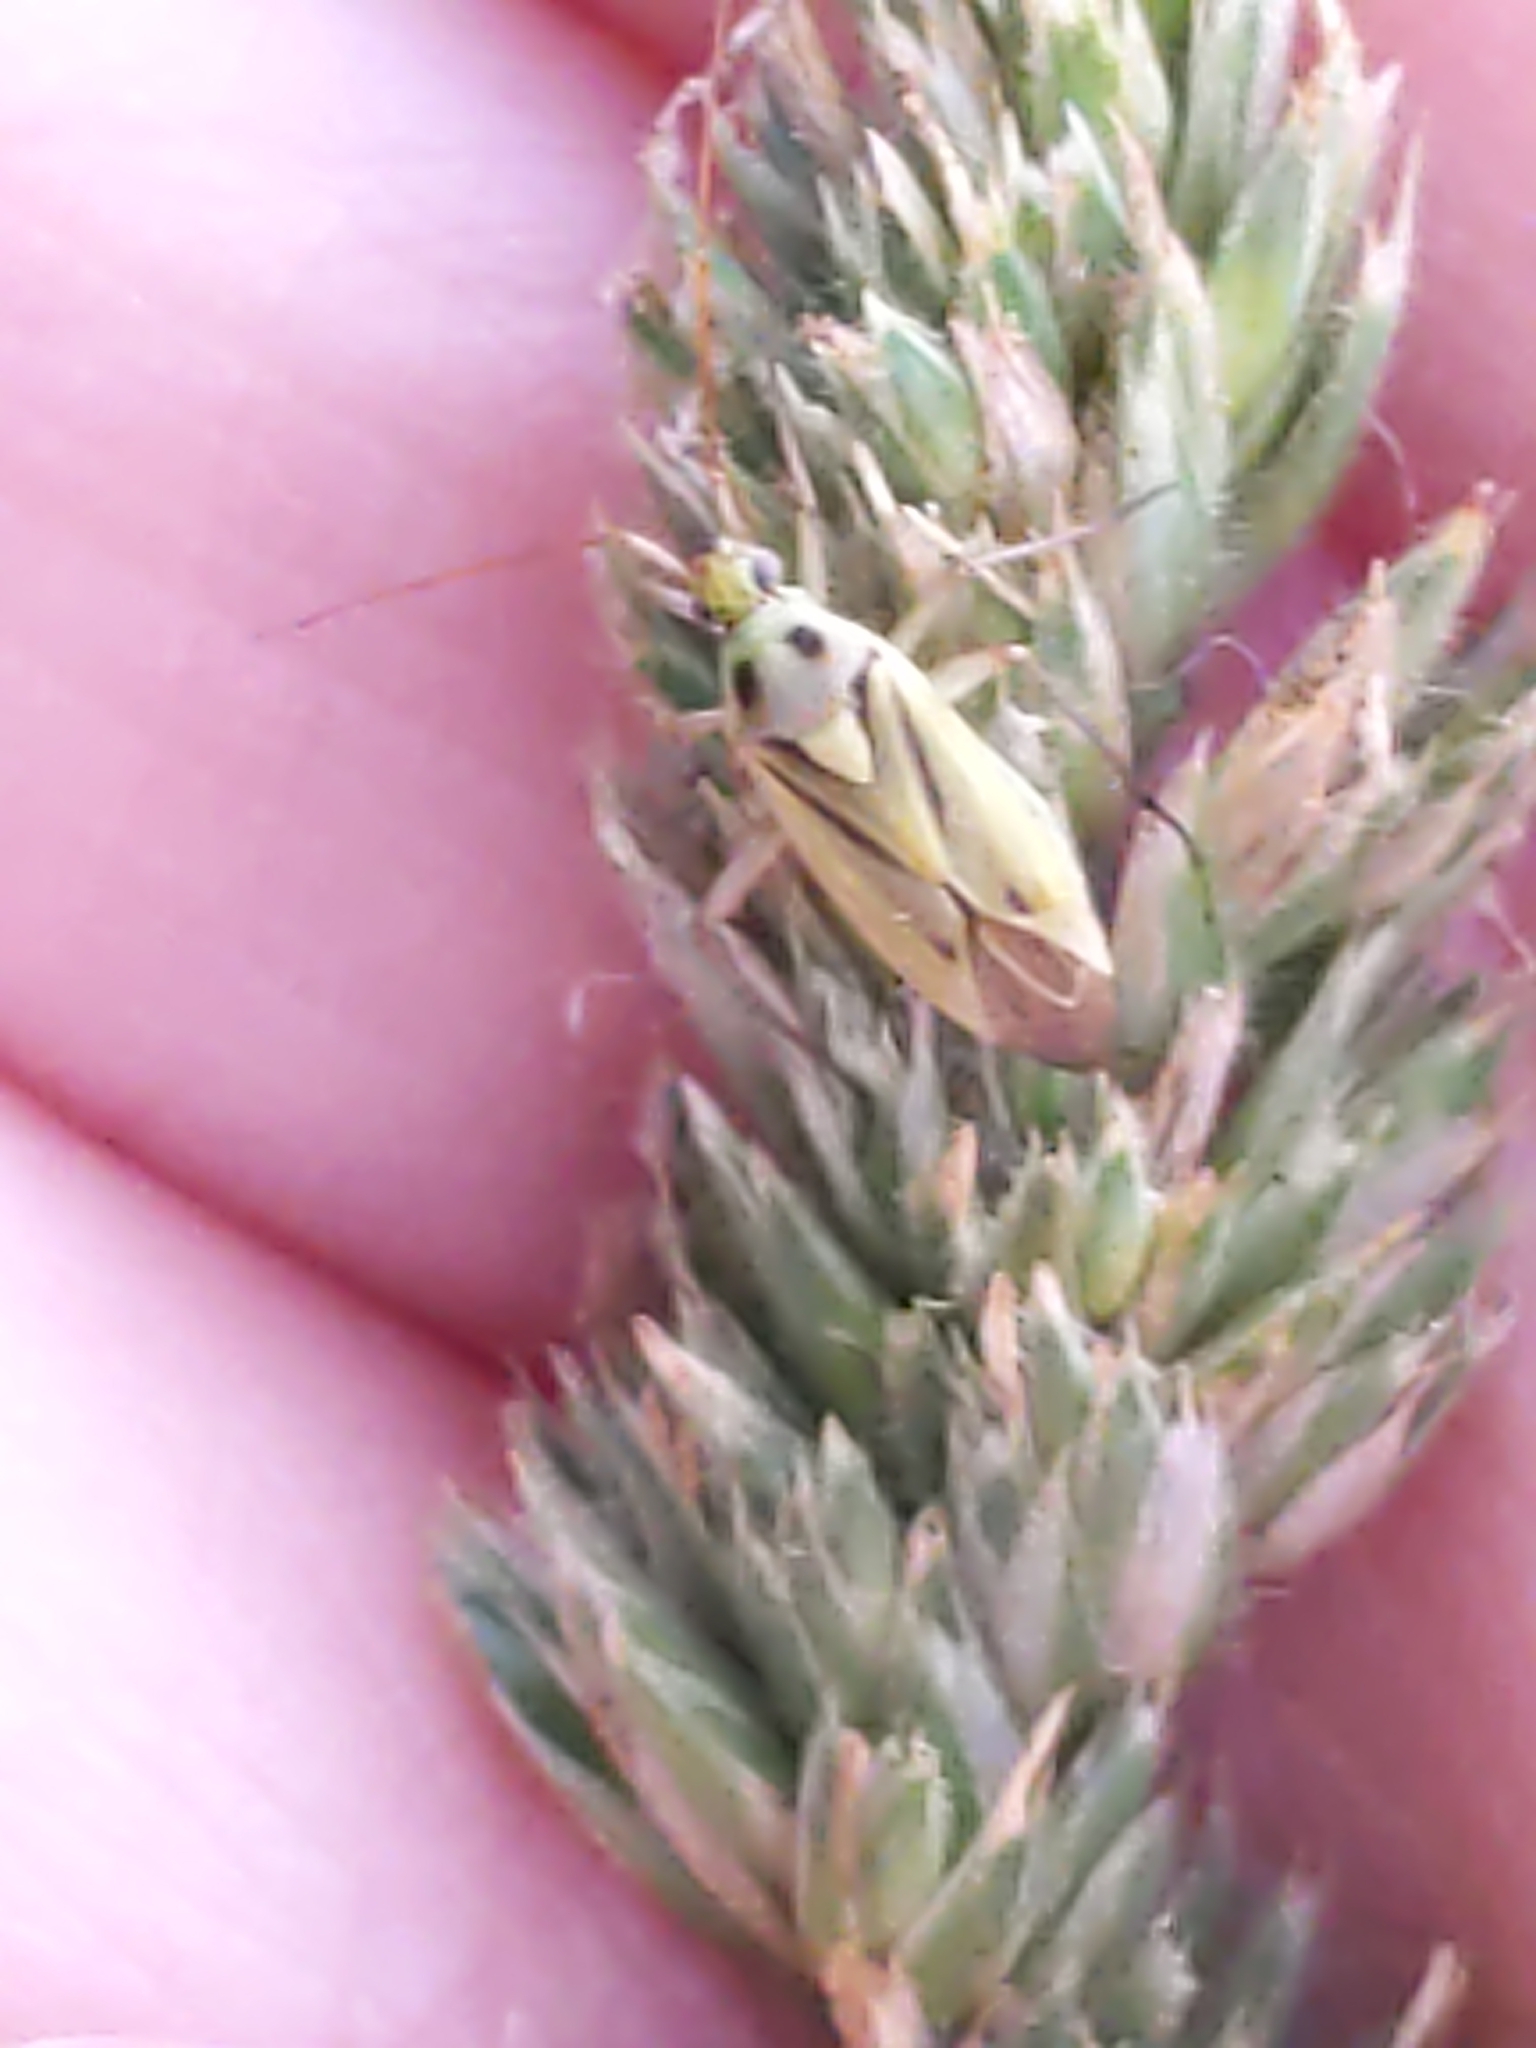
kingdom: Animalia
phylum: Arthropoda
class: Insecta
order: Hemiptera
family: Miridae
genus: Stenotus
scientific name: Stenotus binotatus
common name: Plant bug
